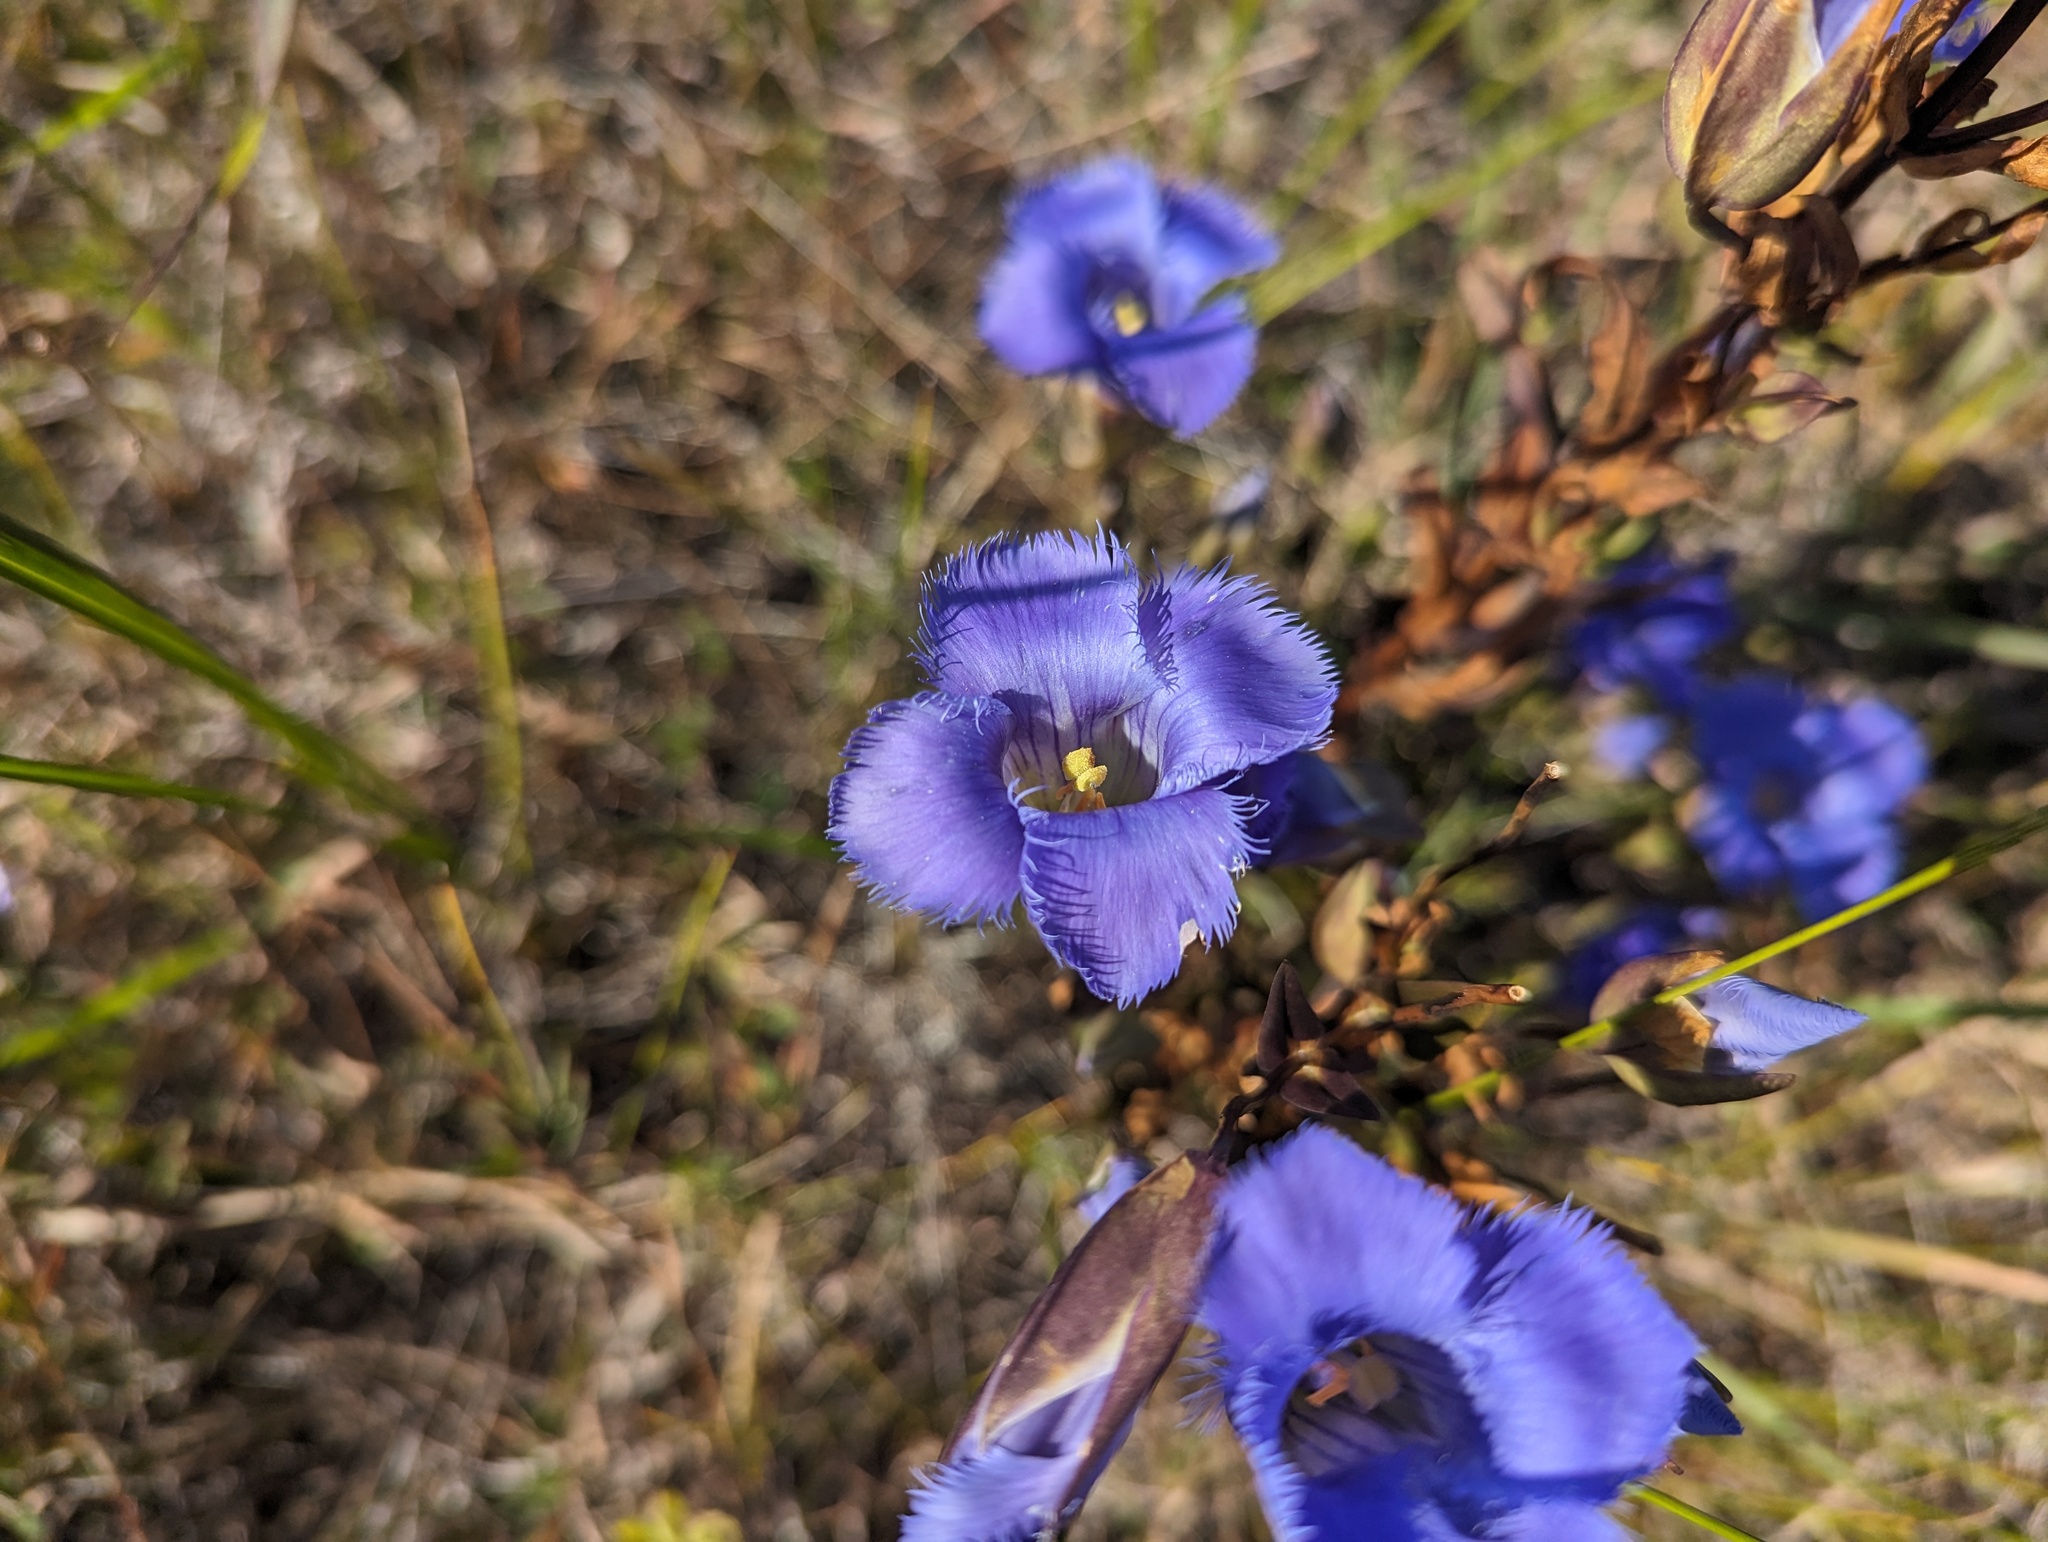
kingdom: Plantae
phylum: Tracheophyta
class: Magnoliopsida
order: Gentianales
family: Gentianaceae
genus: Gentianopsis
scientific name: Gentianopsis crinita
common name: Fringed-gentian
